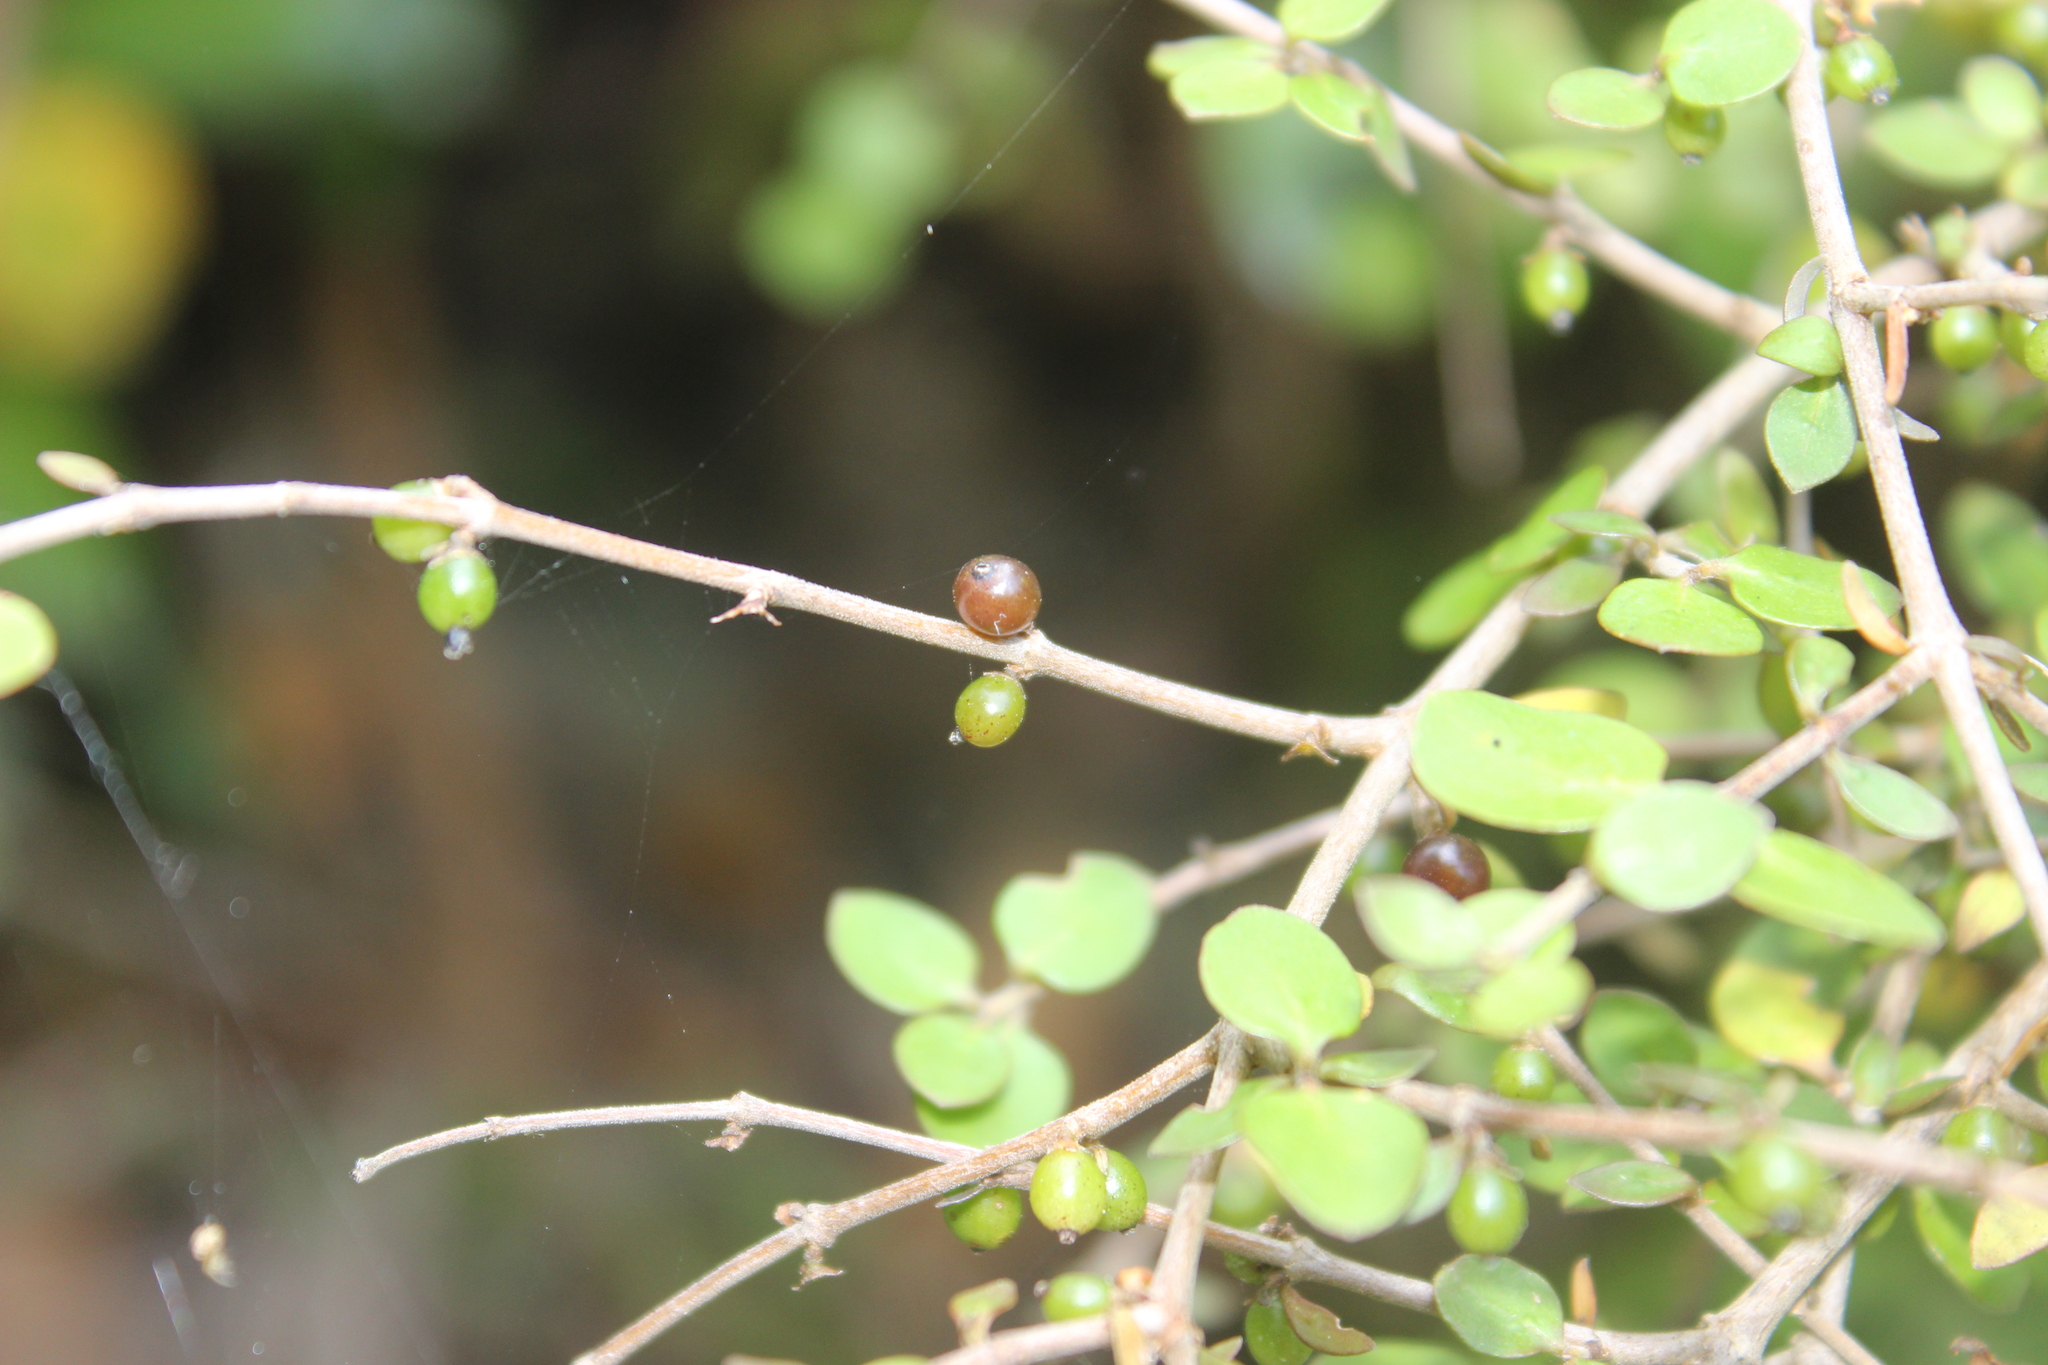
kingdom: Plantae
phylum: Tracheophyta
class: Magnoliopsida
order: Gentianales
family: Rubiaceae
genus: Coprosma
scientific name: Coprosma rhamnoides
